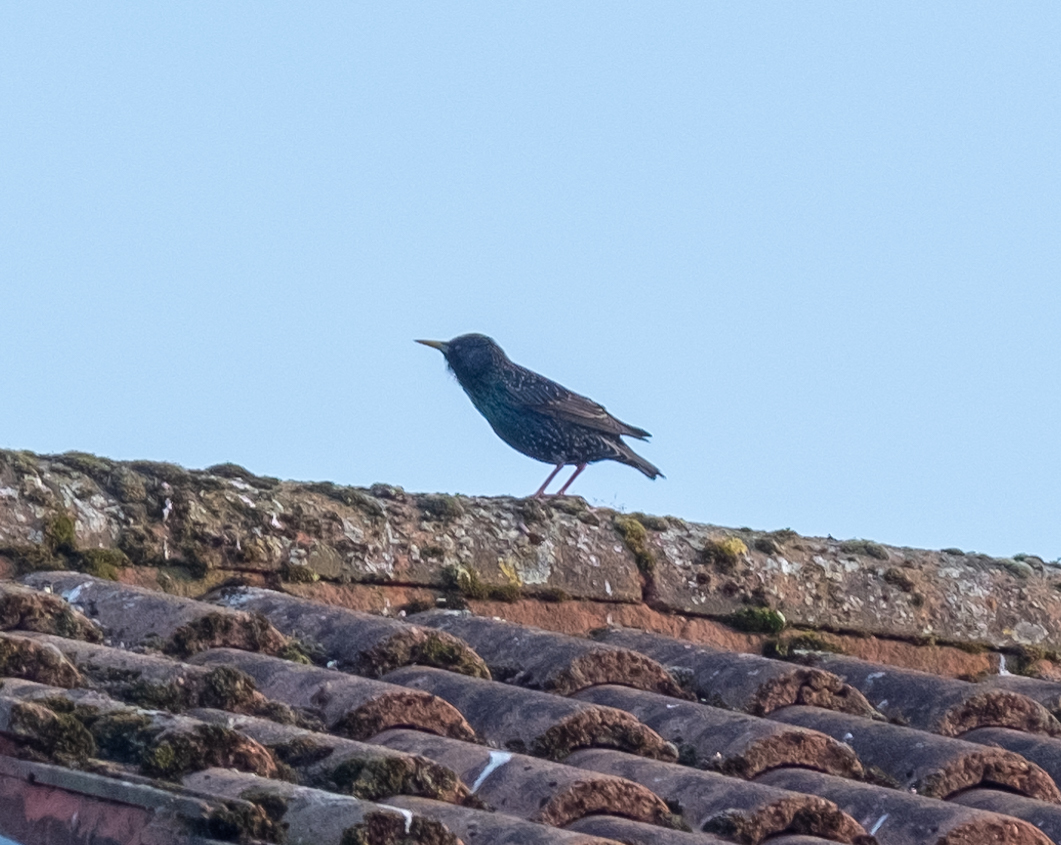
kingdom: Animalia
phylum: Chordata
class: Aves
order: Passeriformes
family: Sturnidae
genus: Sturnus
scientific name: Sturnus vulgaris
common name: Common starling
